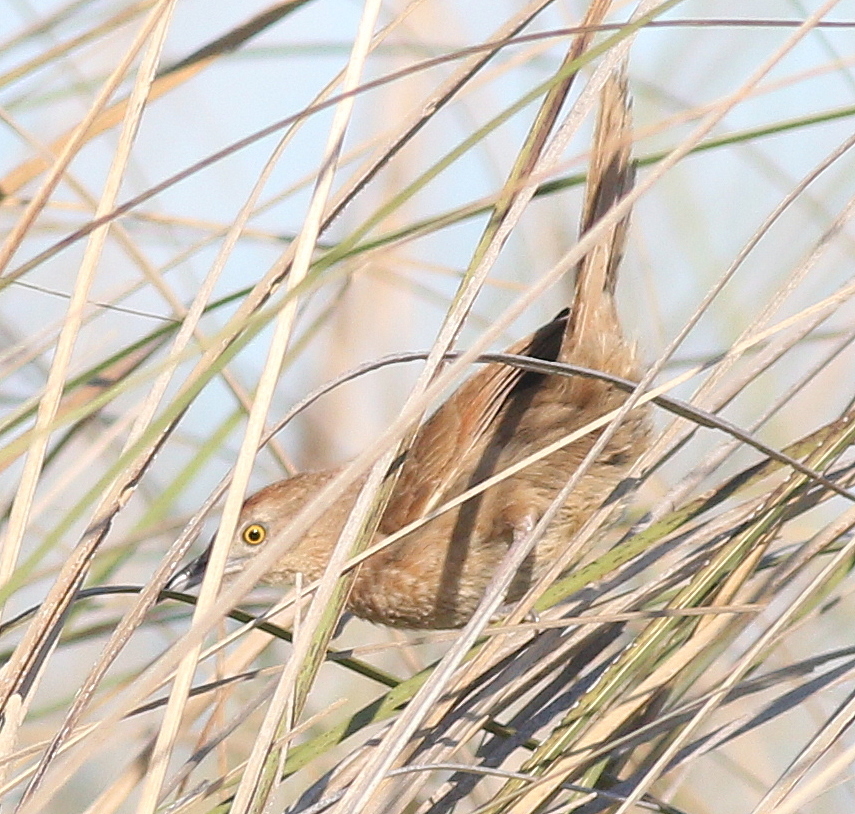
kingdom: Animalia
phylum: Chordata
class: Aves
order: Passeriformes
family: Furnariidae
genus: Phacellodomus
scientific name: Phacellodomus striaticollis
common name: Freckle-breasted thornbird
